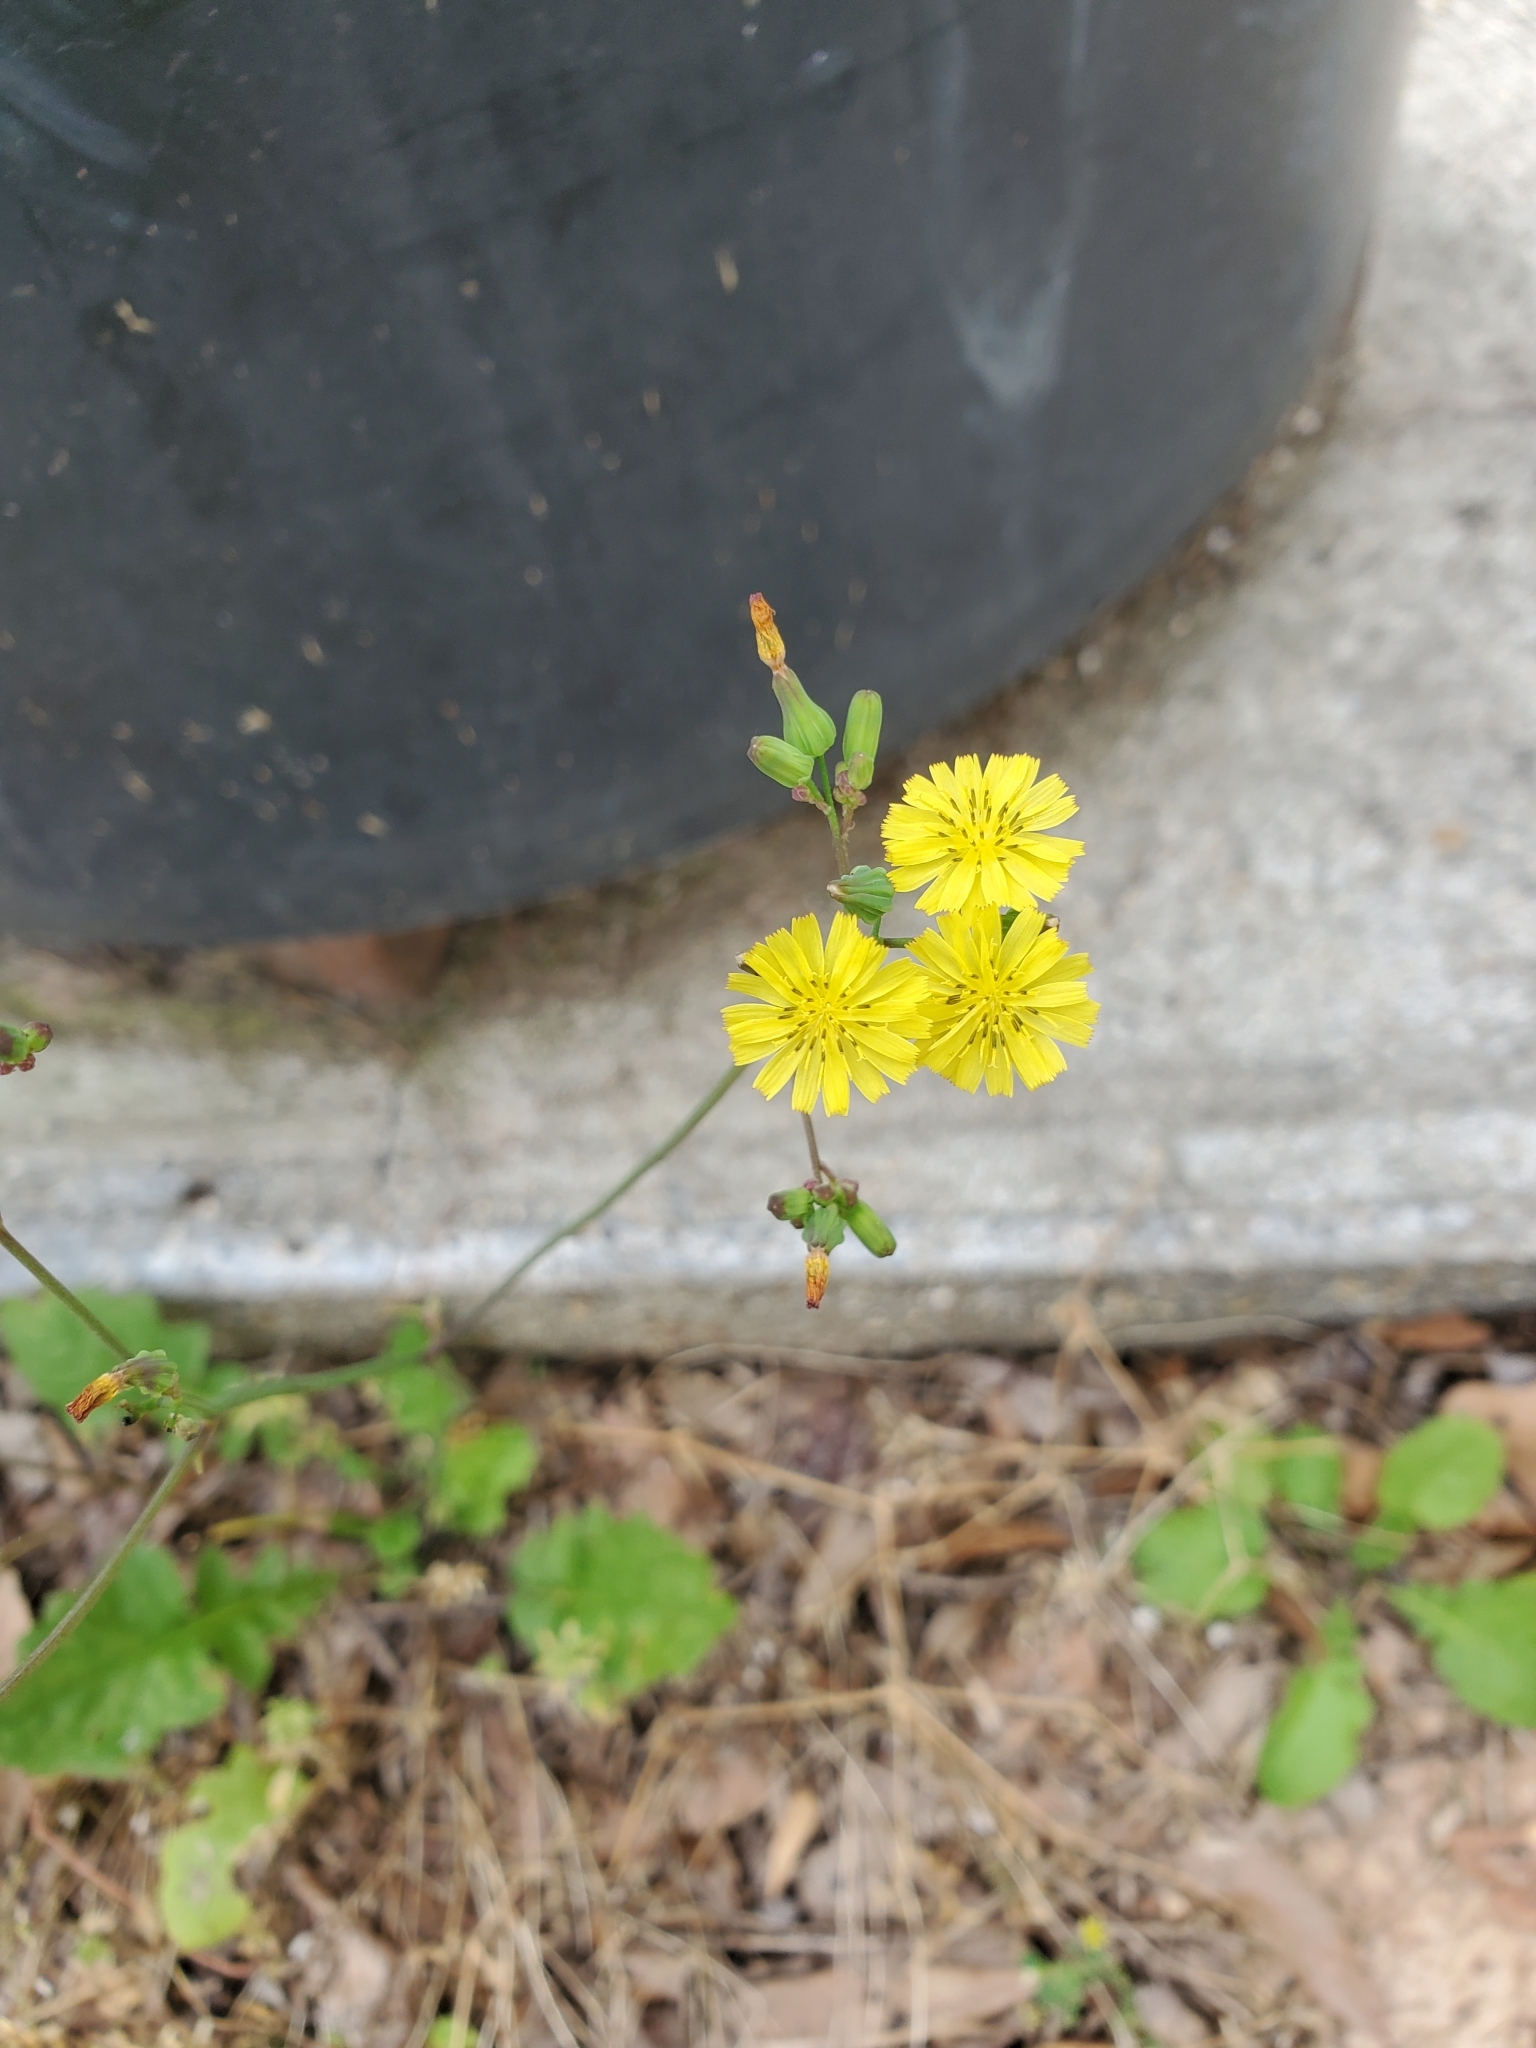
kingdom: Plantae
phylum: Tracheophyta
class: Magnoliopsida
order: Asterales
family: Asteraceae
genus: Youngia
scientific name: Youngia japonica
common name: Oriental false hawksbeard
